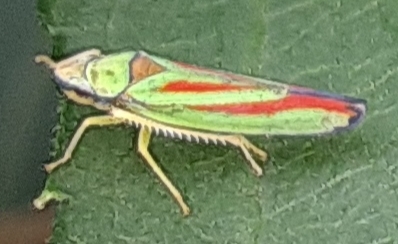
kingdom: Animalia
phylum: Arthropoda
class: Insecta
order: Hemiptera
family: Cicadellidae
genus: Graphocephala
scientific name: Graphocephala fennahi
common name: Rhododendron leafhopper
